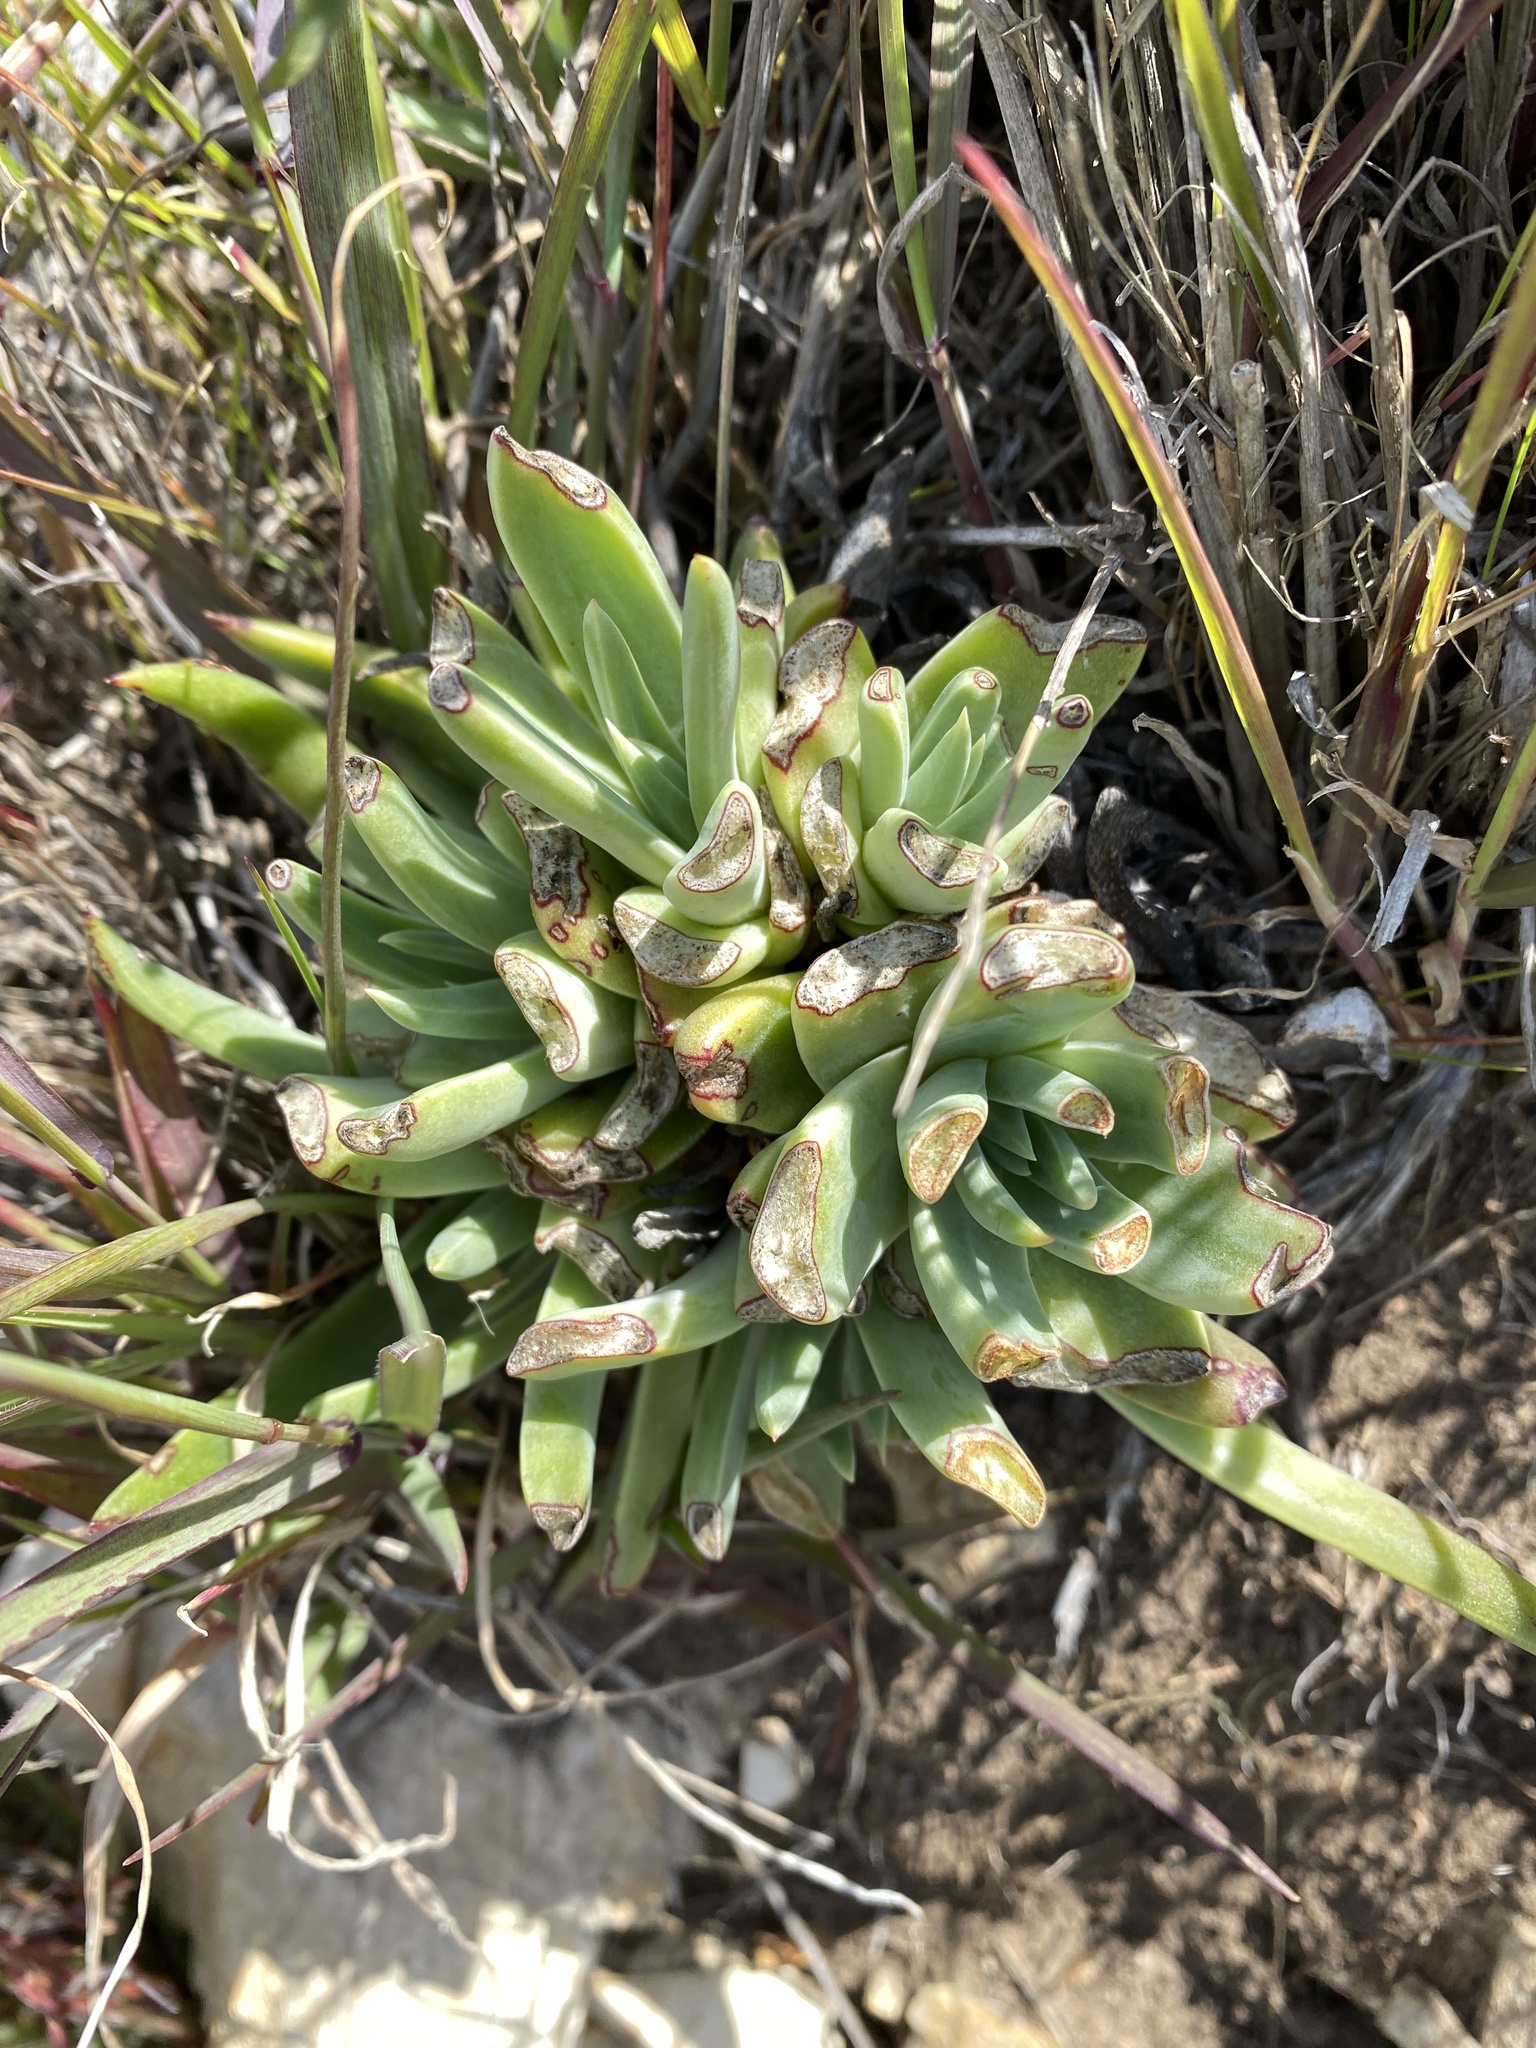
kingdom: Plantae
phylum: Tracheophyta
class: Magnoliopsida
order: Saxifragales
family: Crassulaceae
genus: Dudleya
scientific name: Dudleya caespitosa
